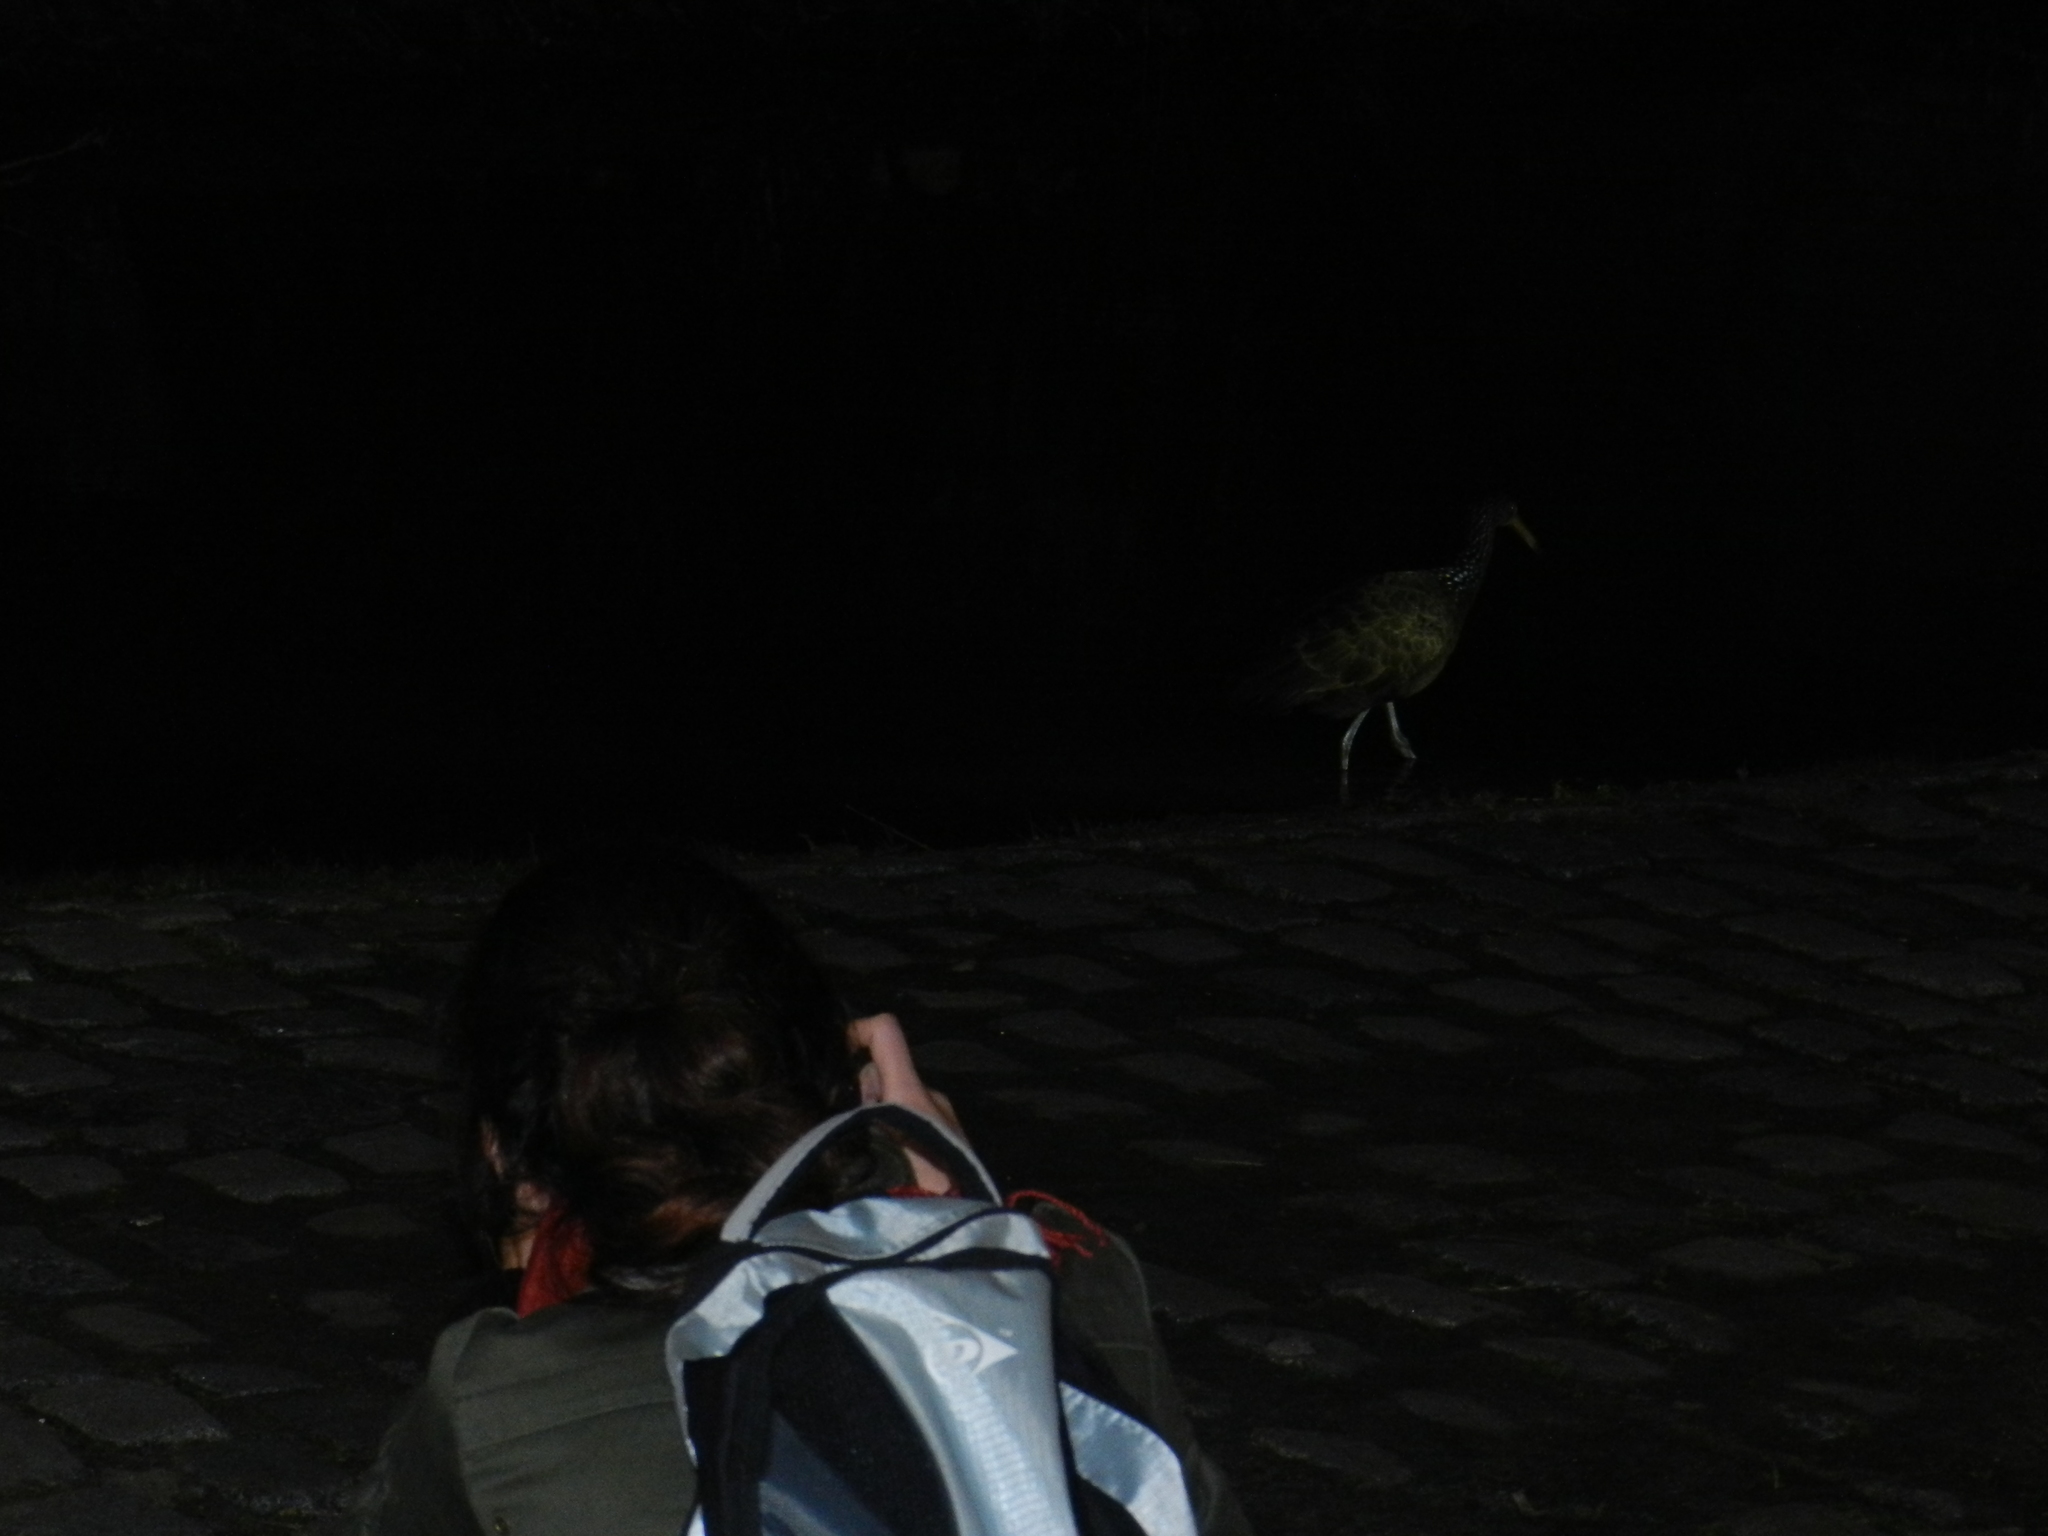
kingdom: Animalia
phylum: Chordata
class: Aves
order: Gruiformes
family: Aramidae
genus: Aramus
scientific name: Aramus guarauna
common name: Limpkin
